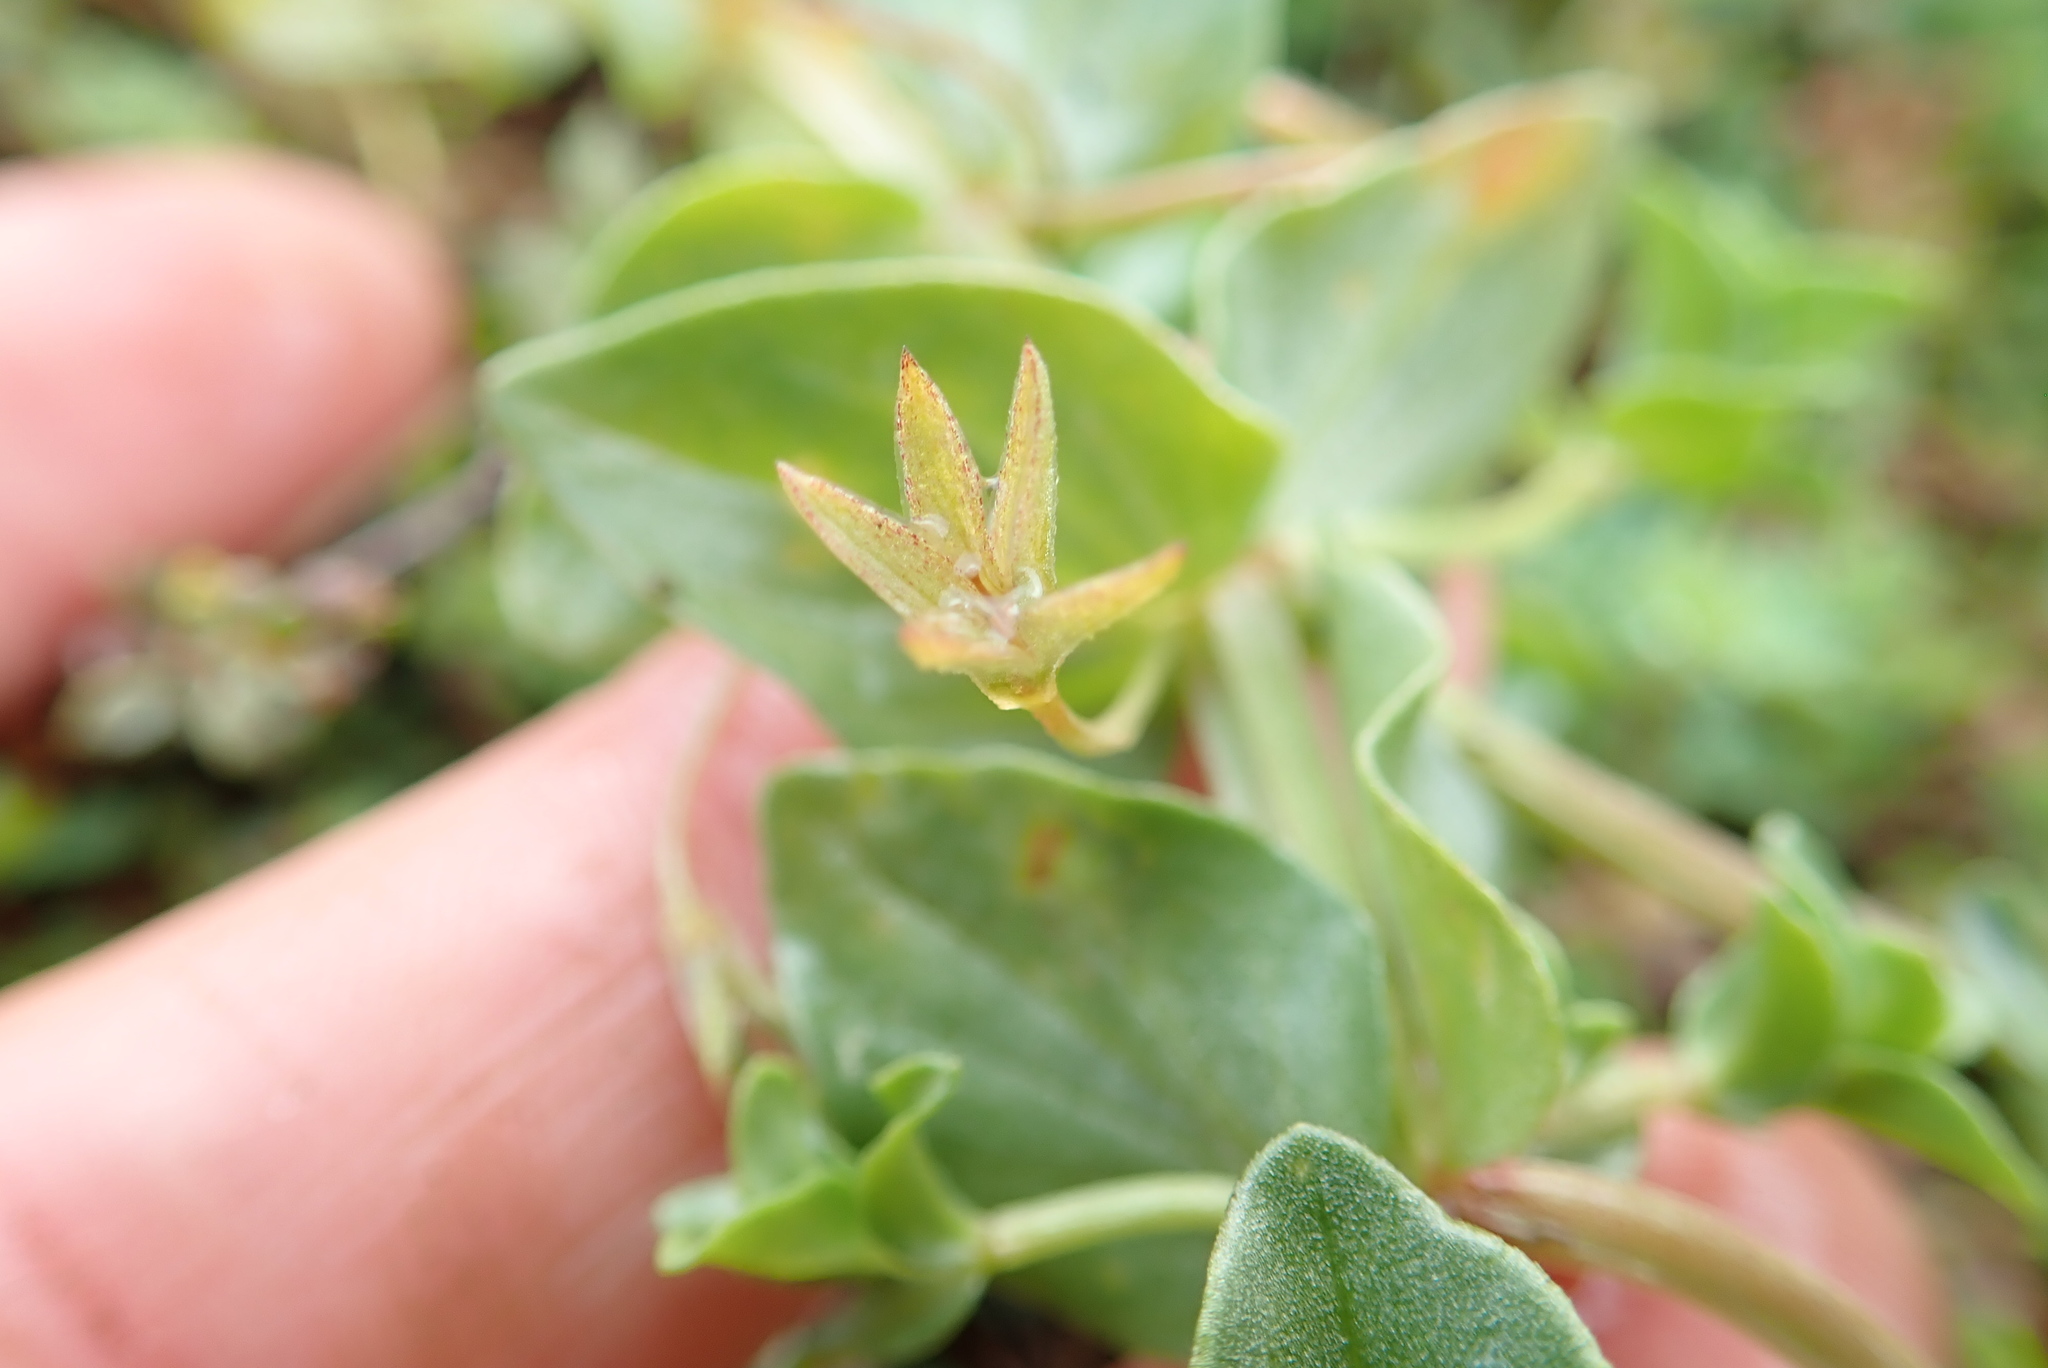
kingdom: Plantae
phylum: Tracheophyta
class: Magnoliopsida
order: Ericales
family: Primulaceae
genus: Lysimachia
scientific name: Lysimachia arvensis
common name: Scarlet pimpernel
